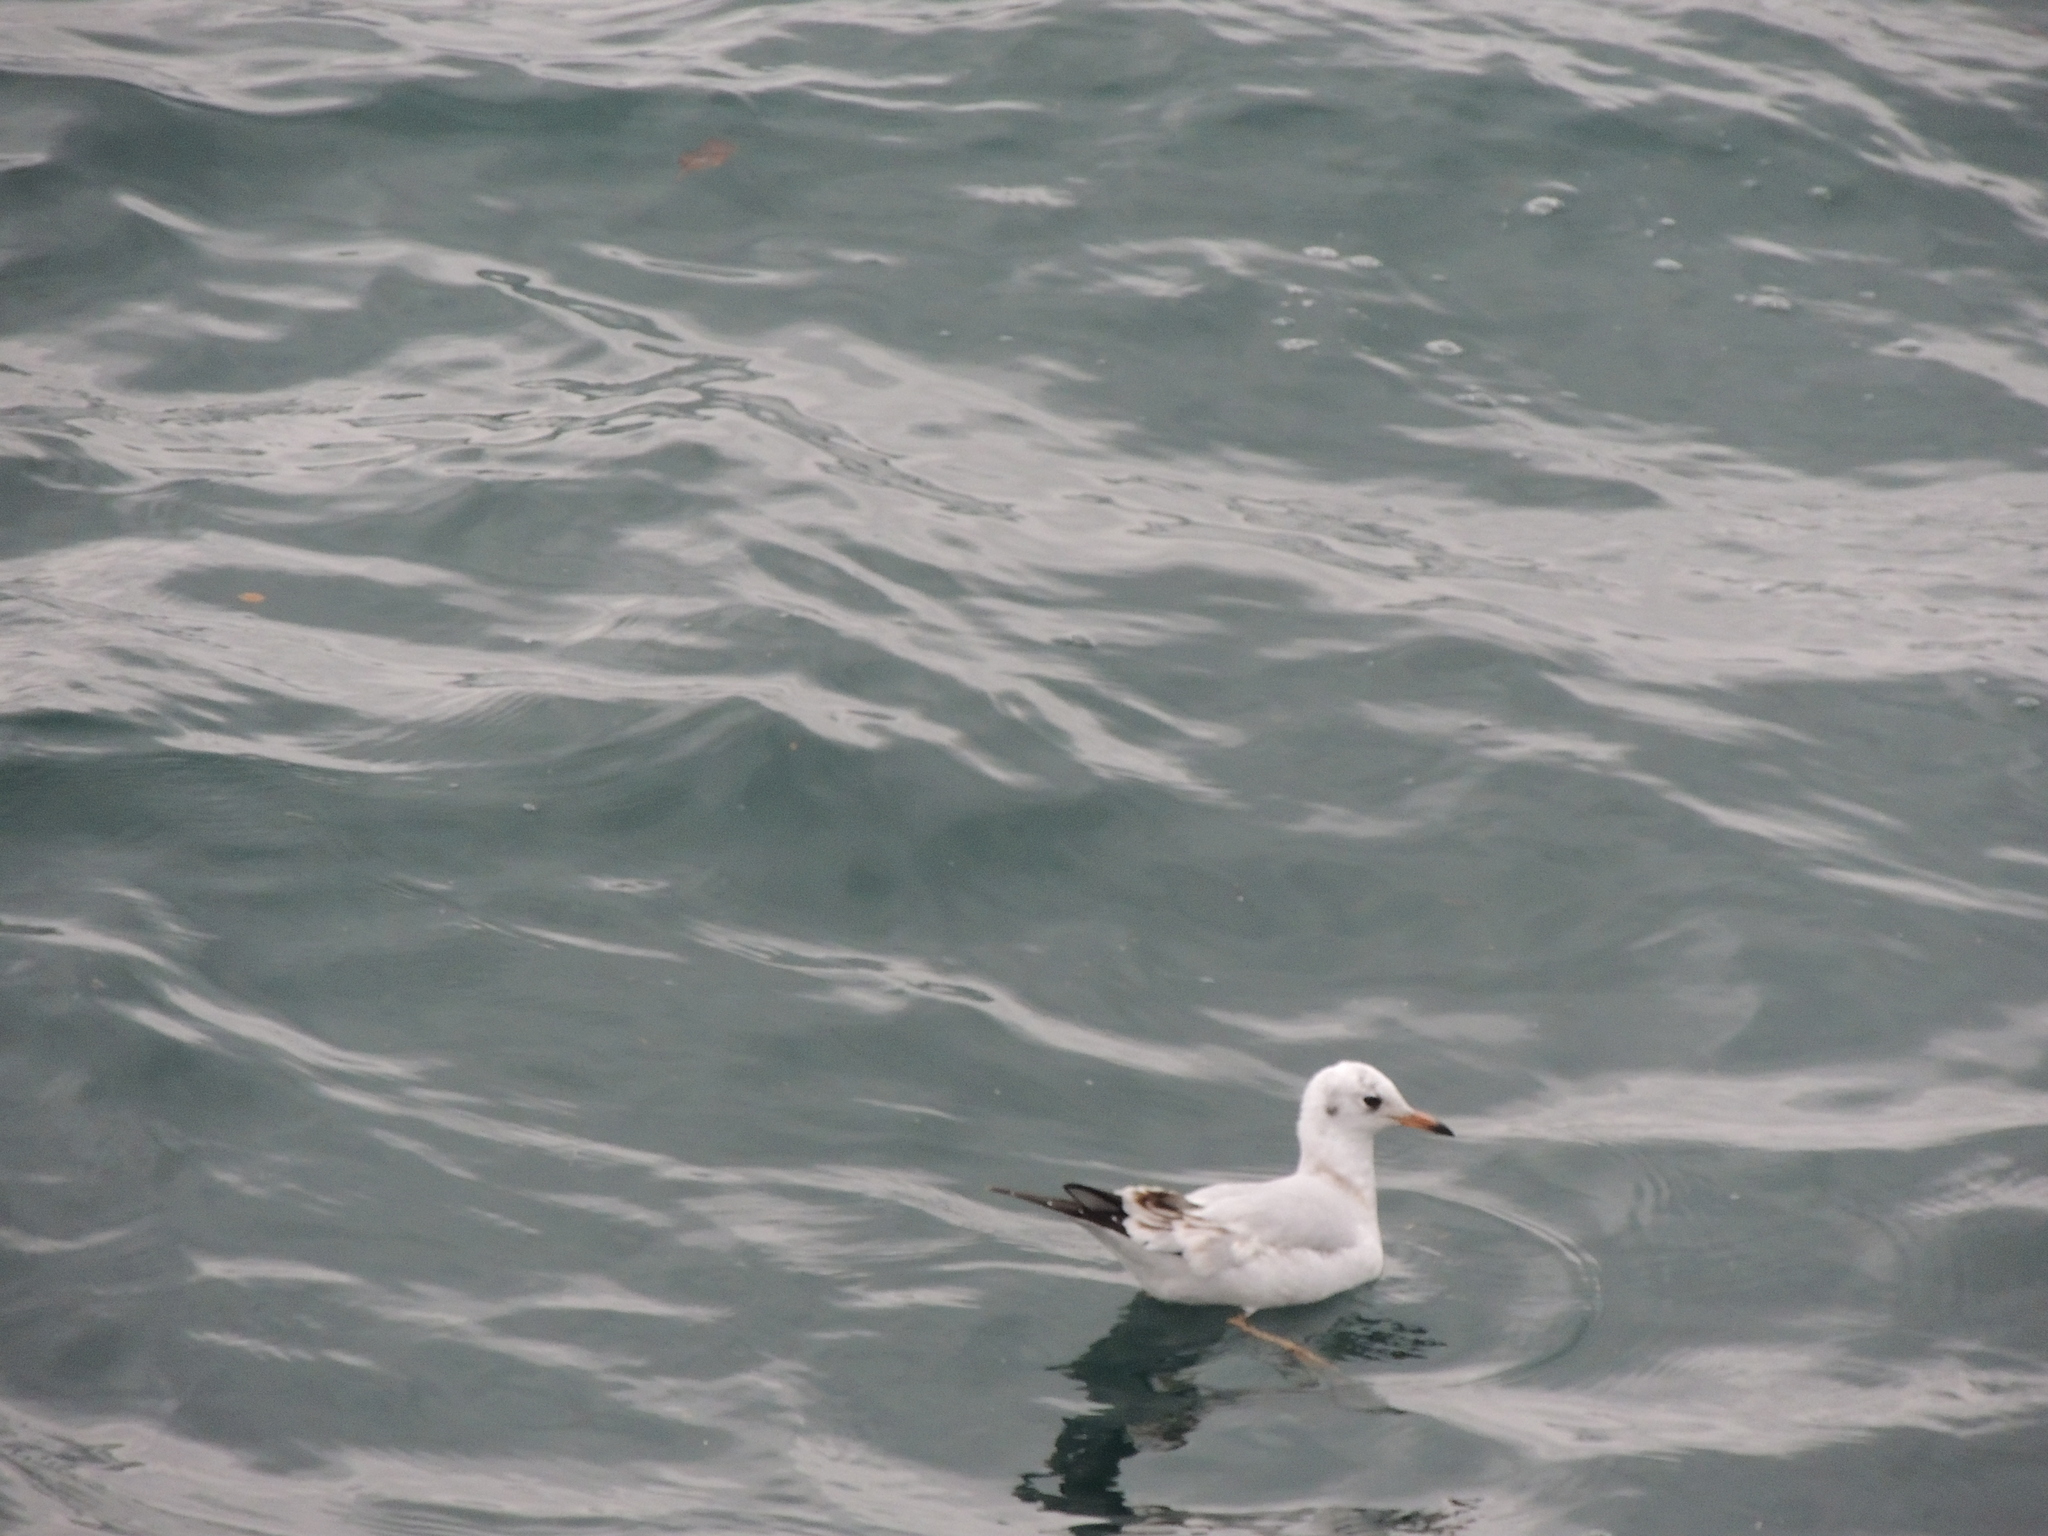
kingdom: Animalia
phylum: Chordata
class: Aves
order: Charadriiformes
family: Laridae
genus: Chroicocephalus
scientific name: Chroicocephalus ridibundus
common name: Black-headed gull
